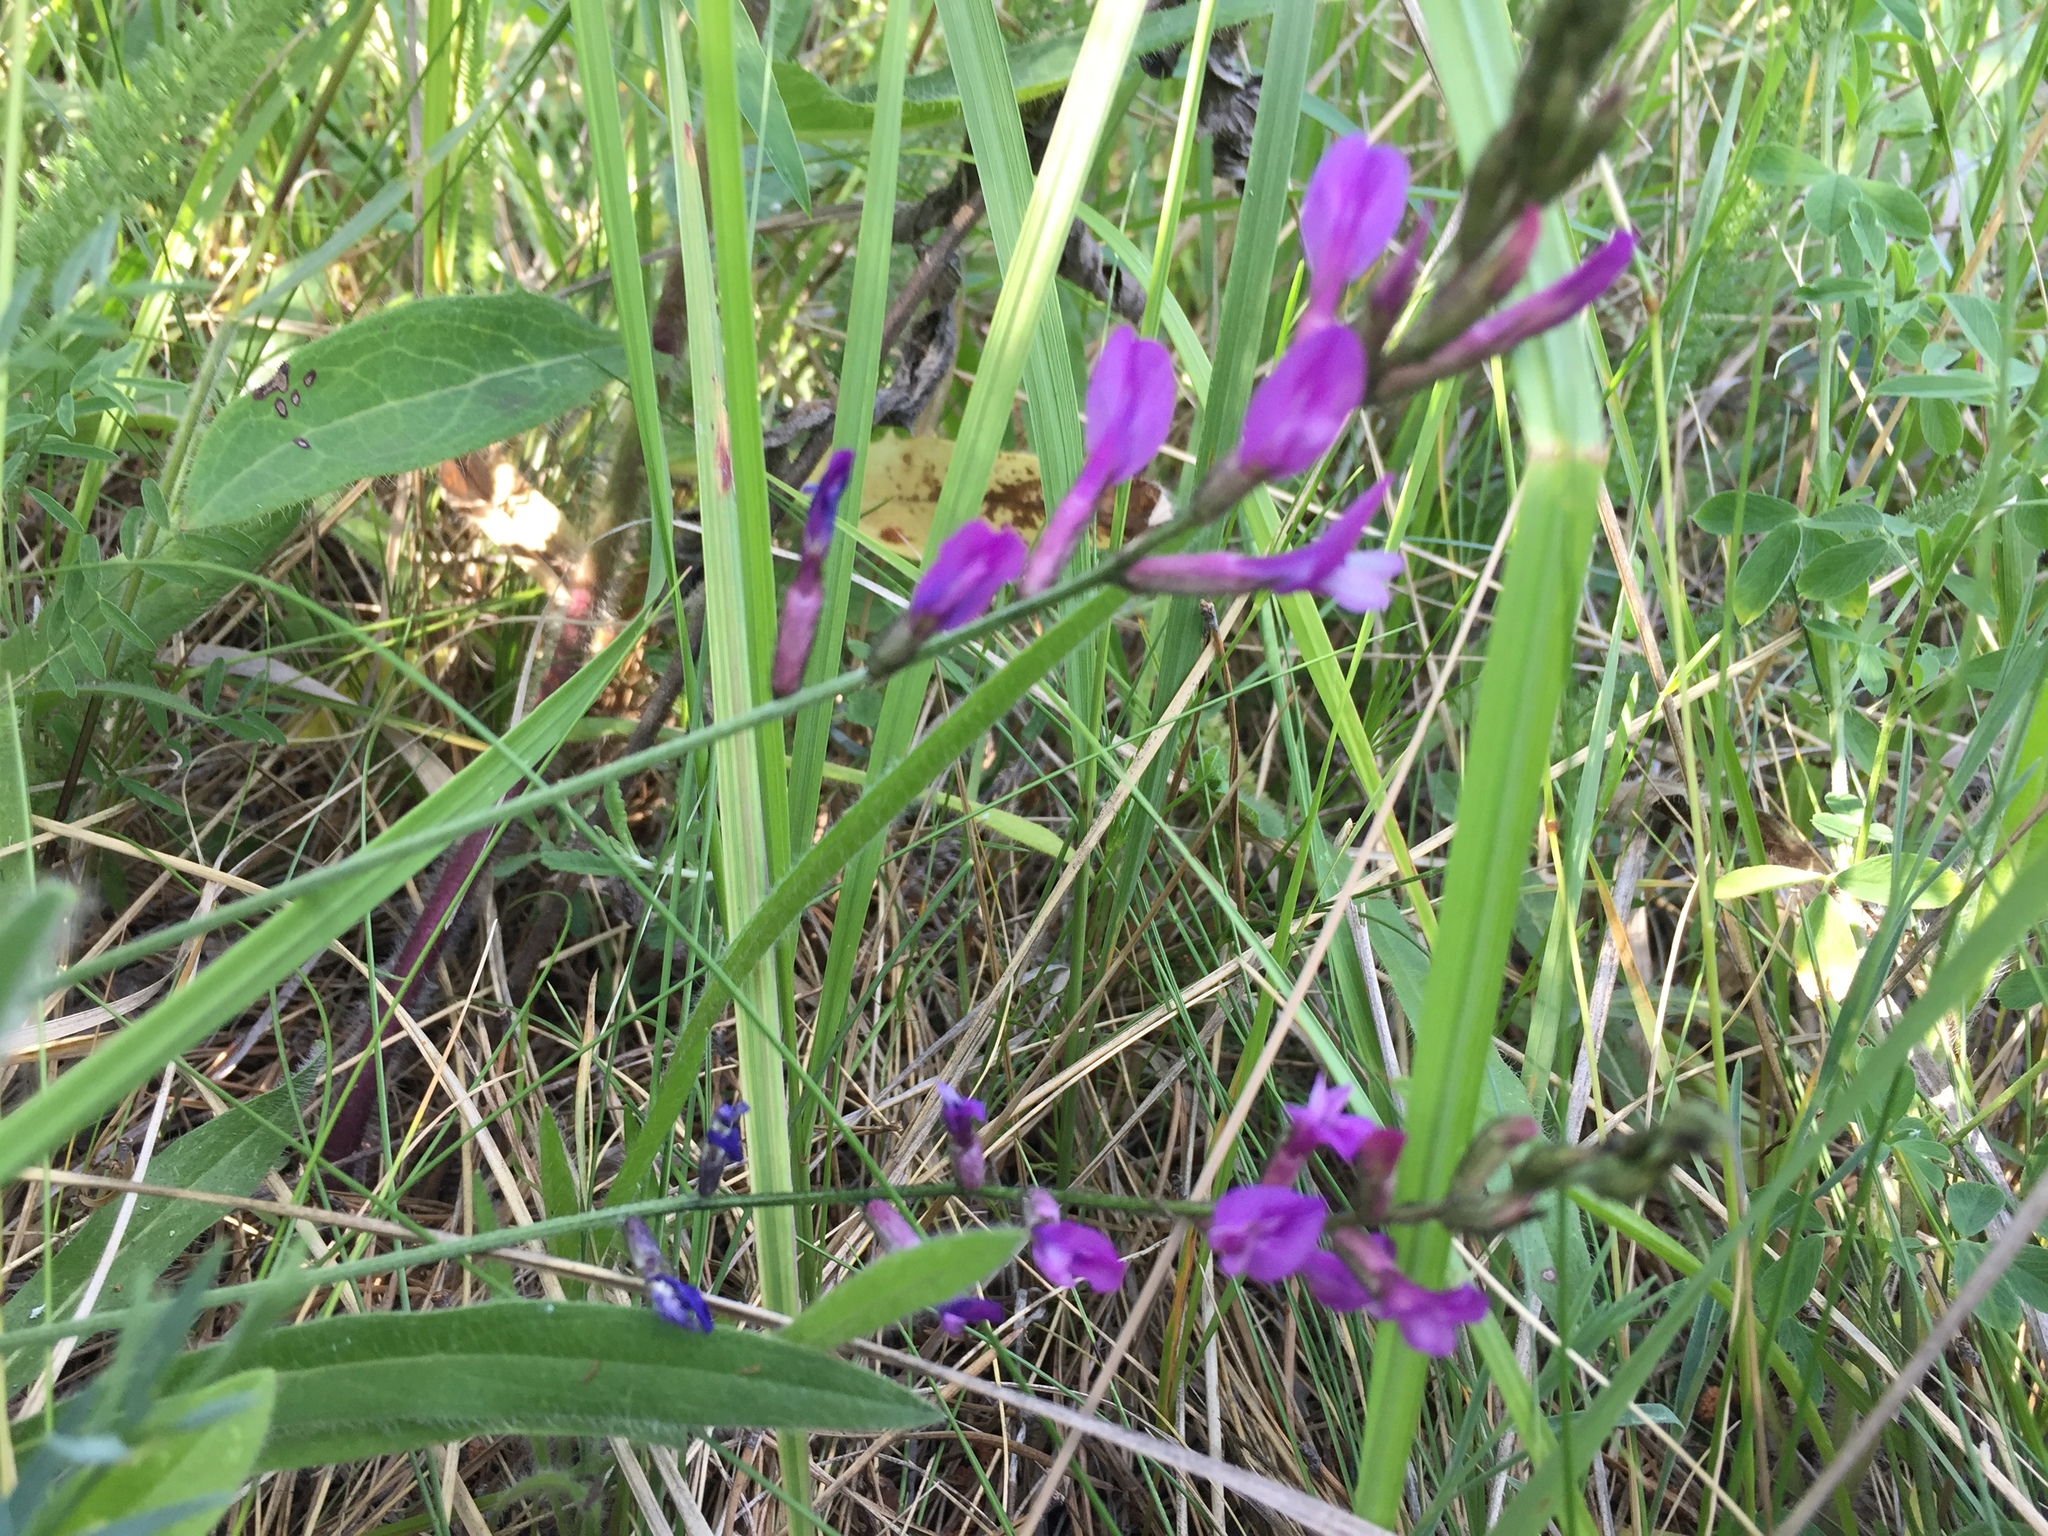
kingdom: Plantae
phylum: Tracheophyta
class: Magnoliopsida
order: Fabales
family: Fabaceae
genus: Astragalus
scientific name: Astragalus varius
